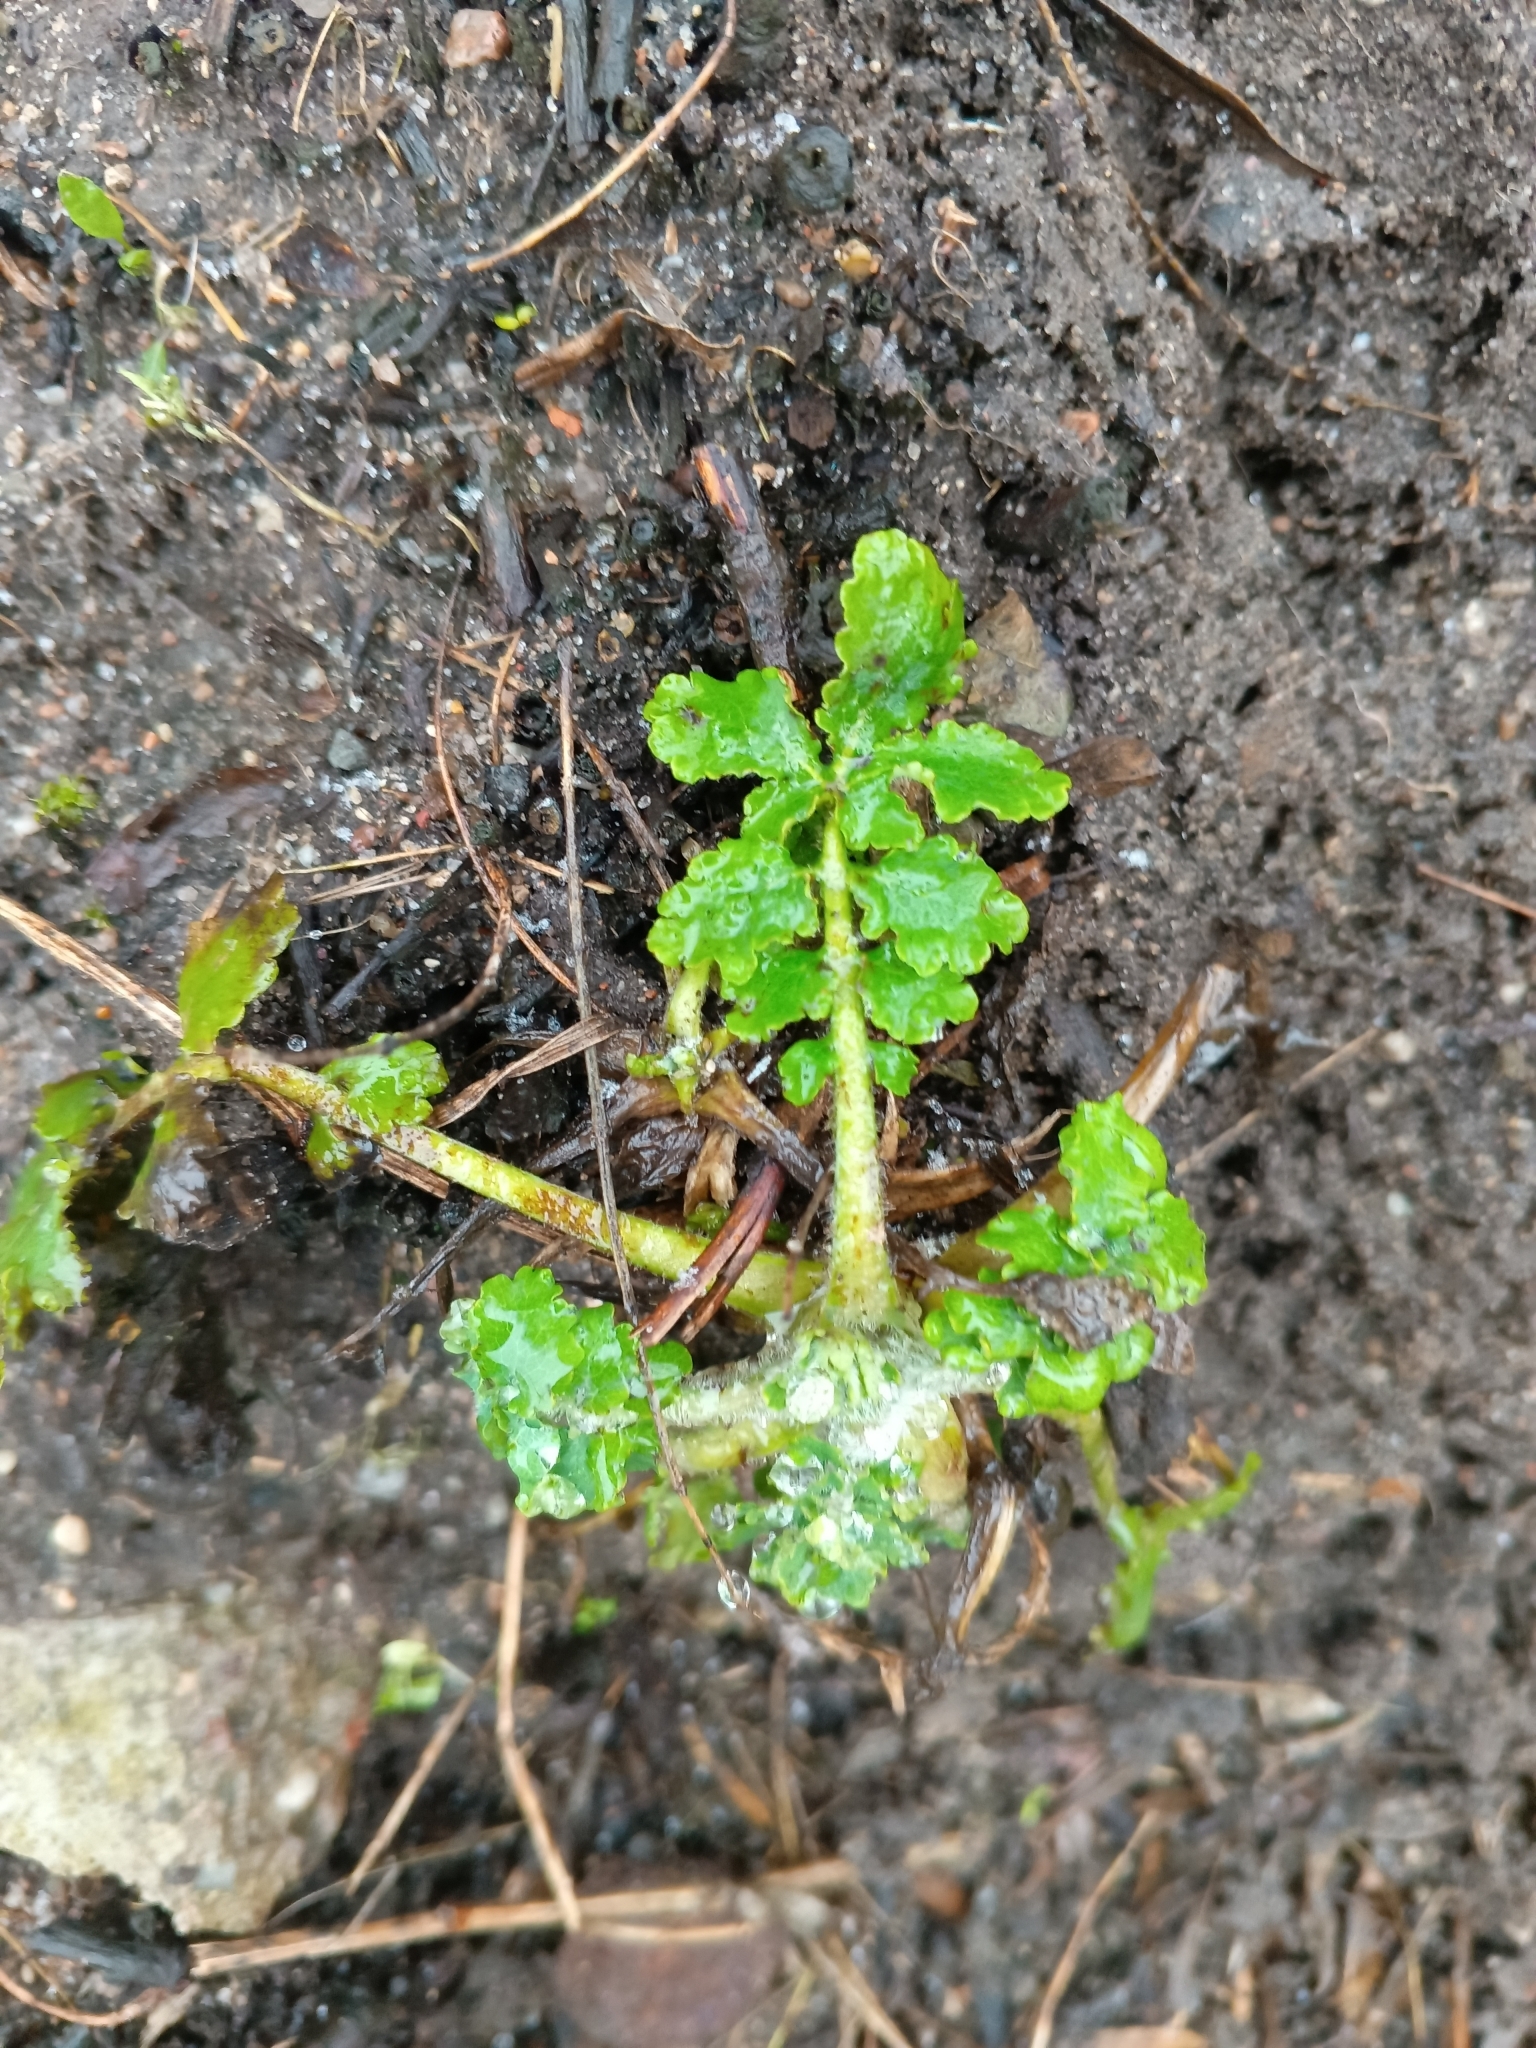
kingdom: Plantae
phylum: Tracheophyta
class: Magnoliopsida
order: Ranunculales
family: Papaveraceae
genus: Chelidonium
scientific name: Chelidonium majus
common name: Greater celandine
